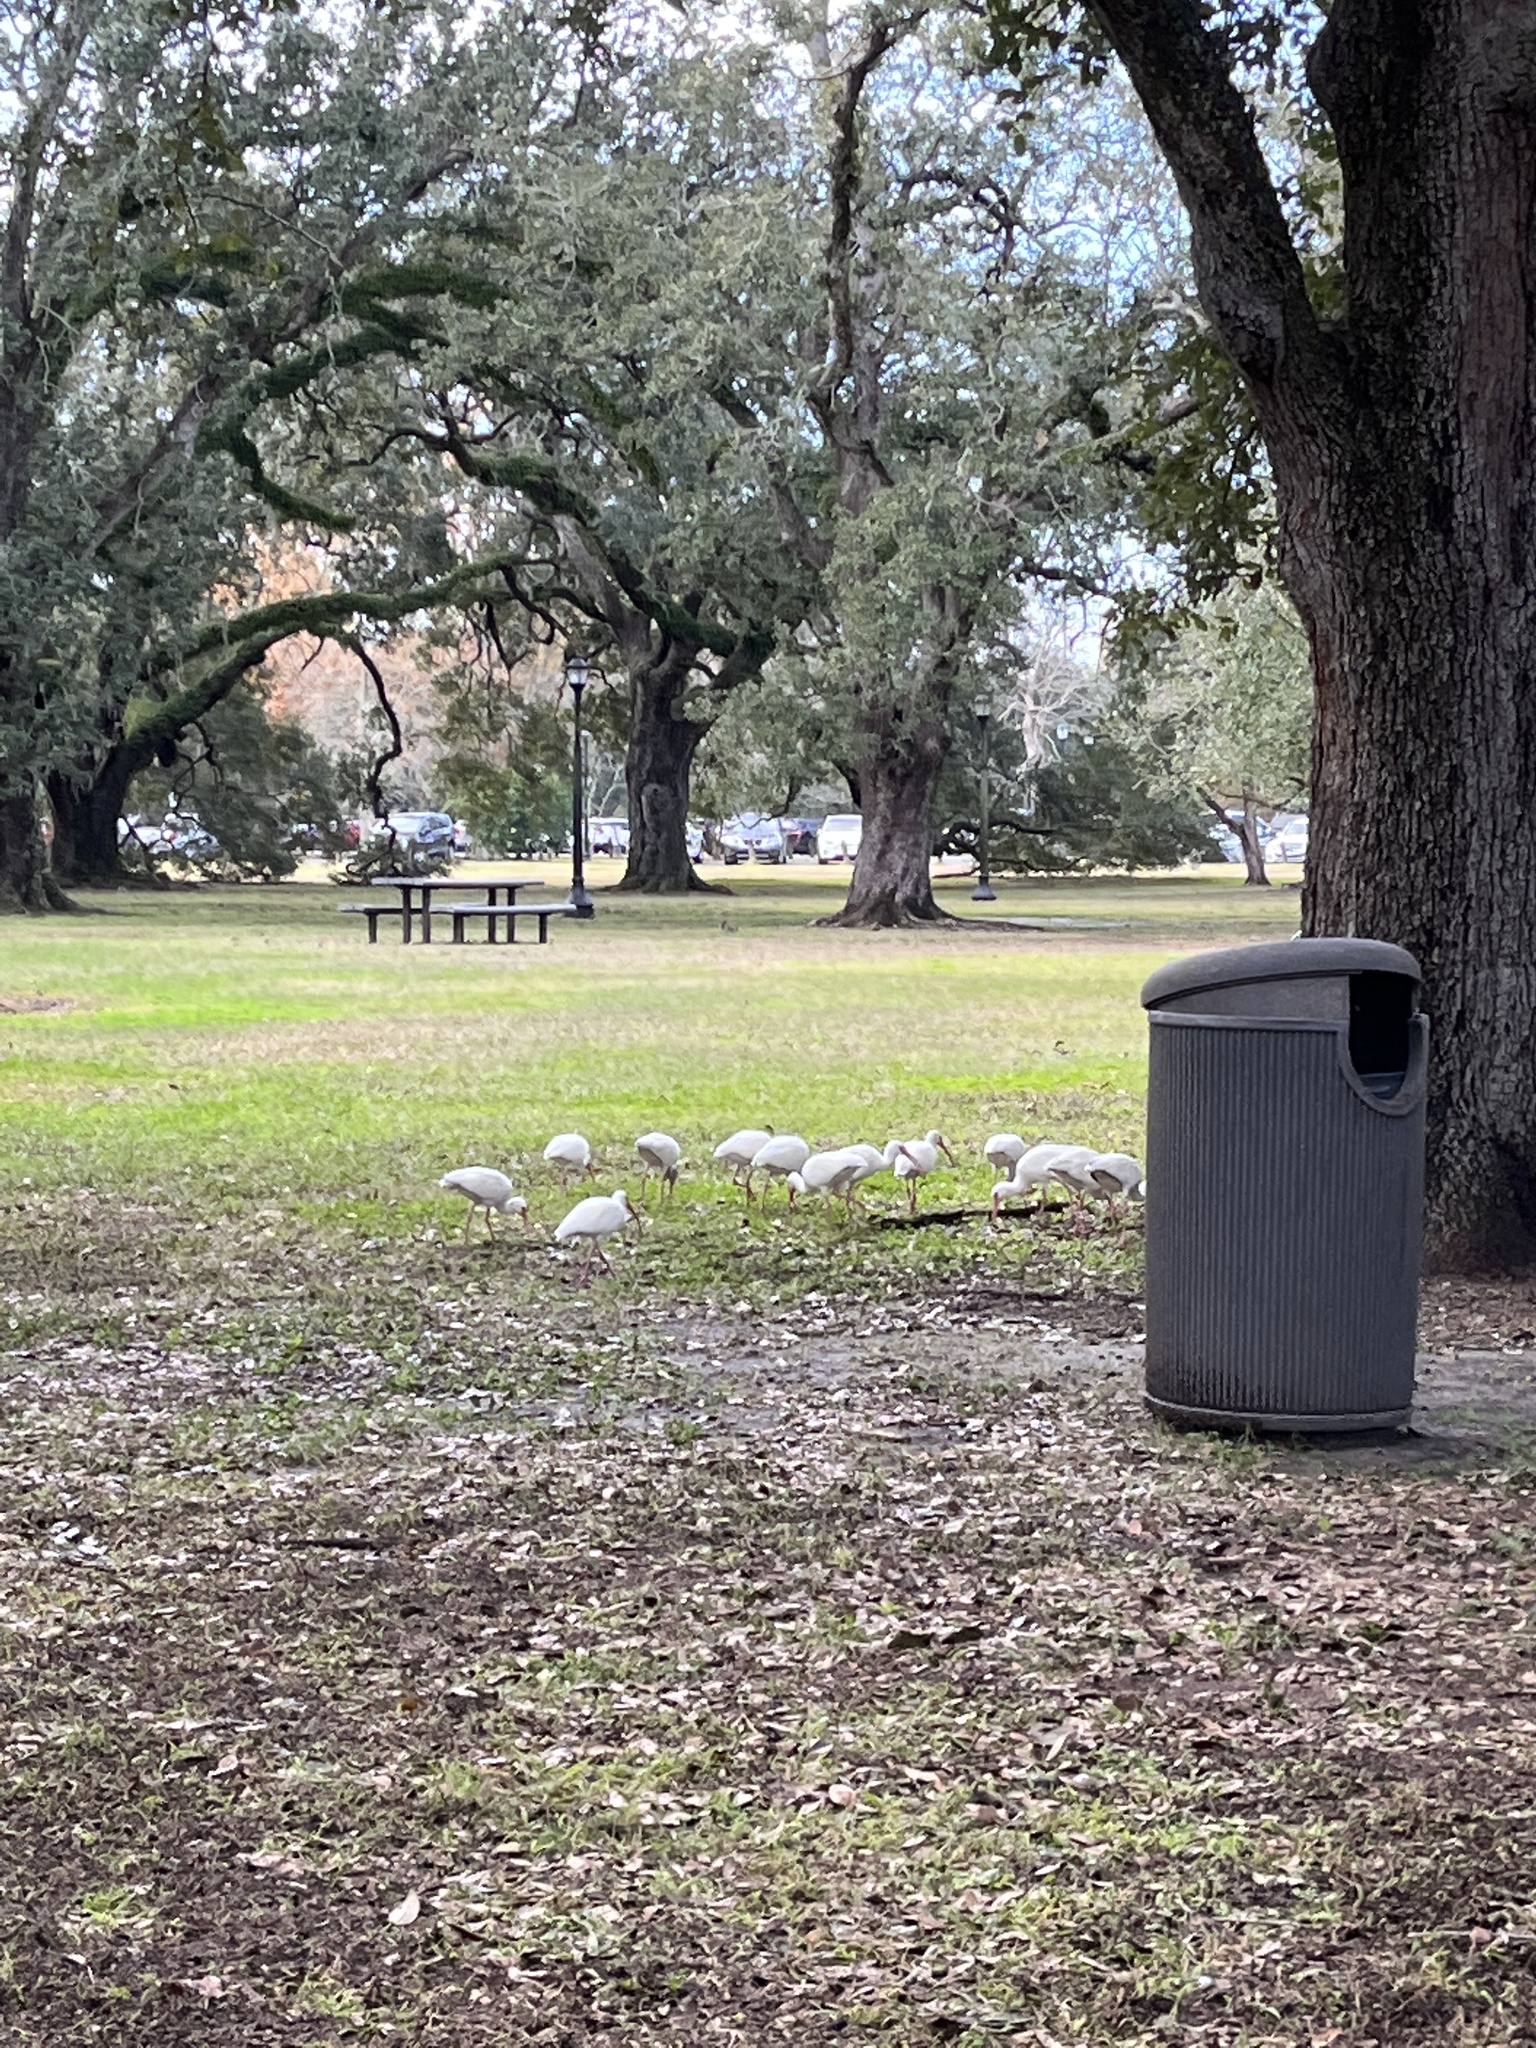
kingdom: Animalia
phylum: Chordata
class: Aves
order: Pelecaniformes
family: Threskiornithidae
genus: Eudocimus
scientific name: Eudocimus albus
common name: White ibis
